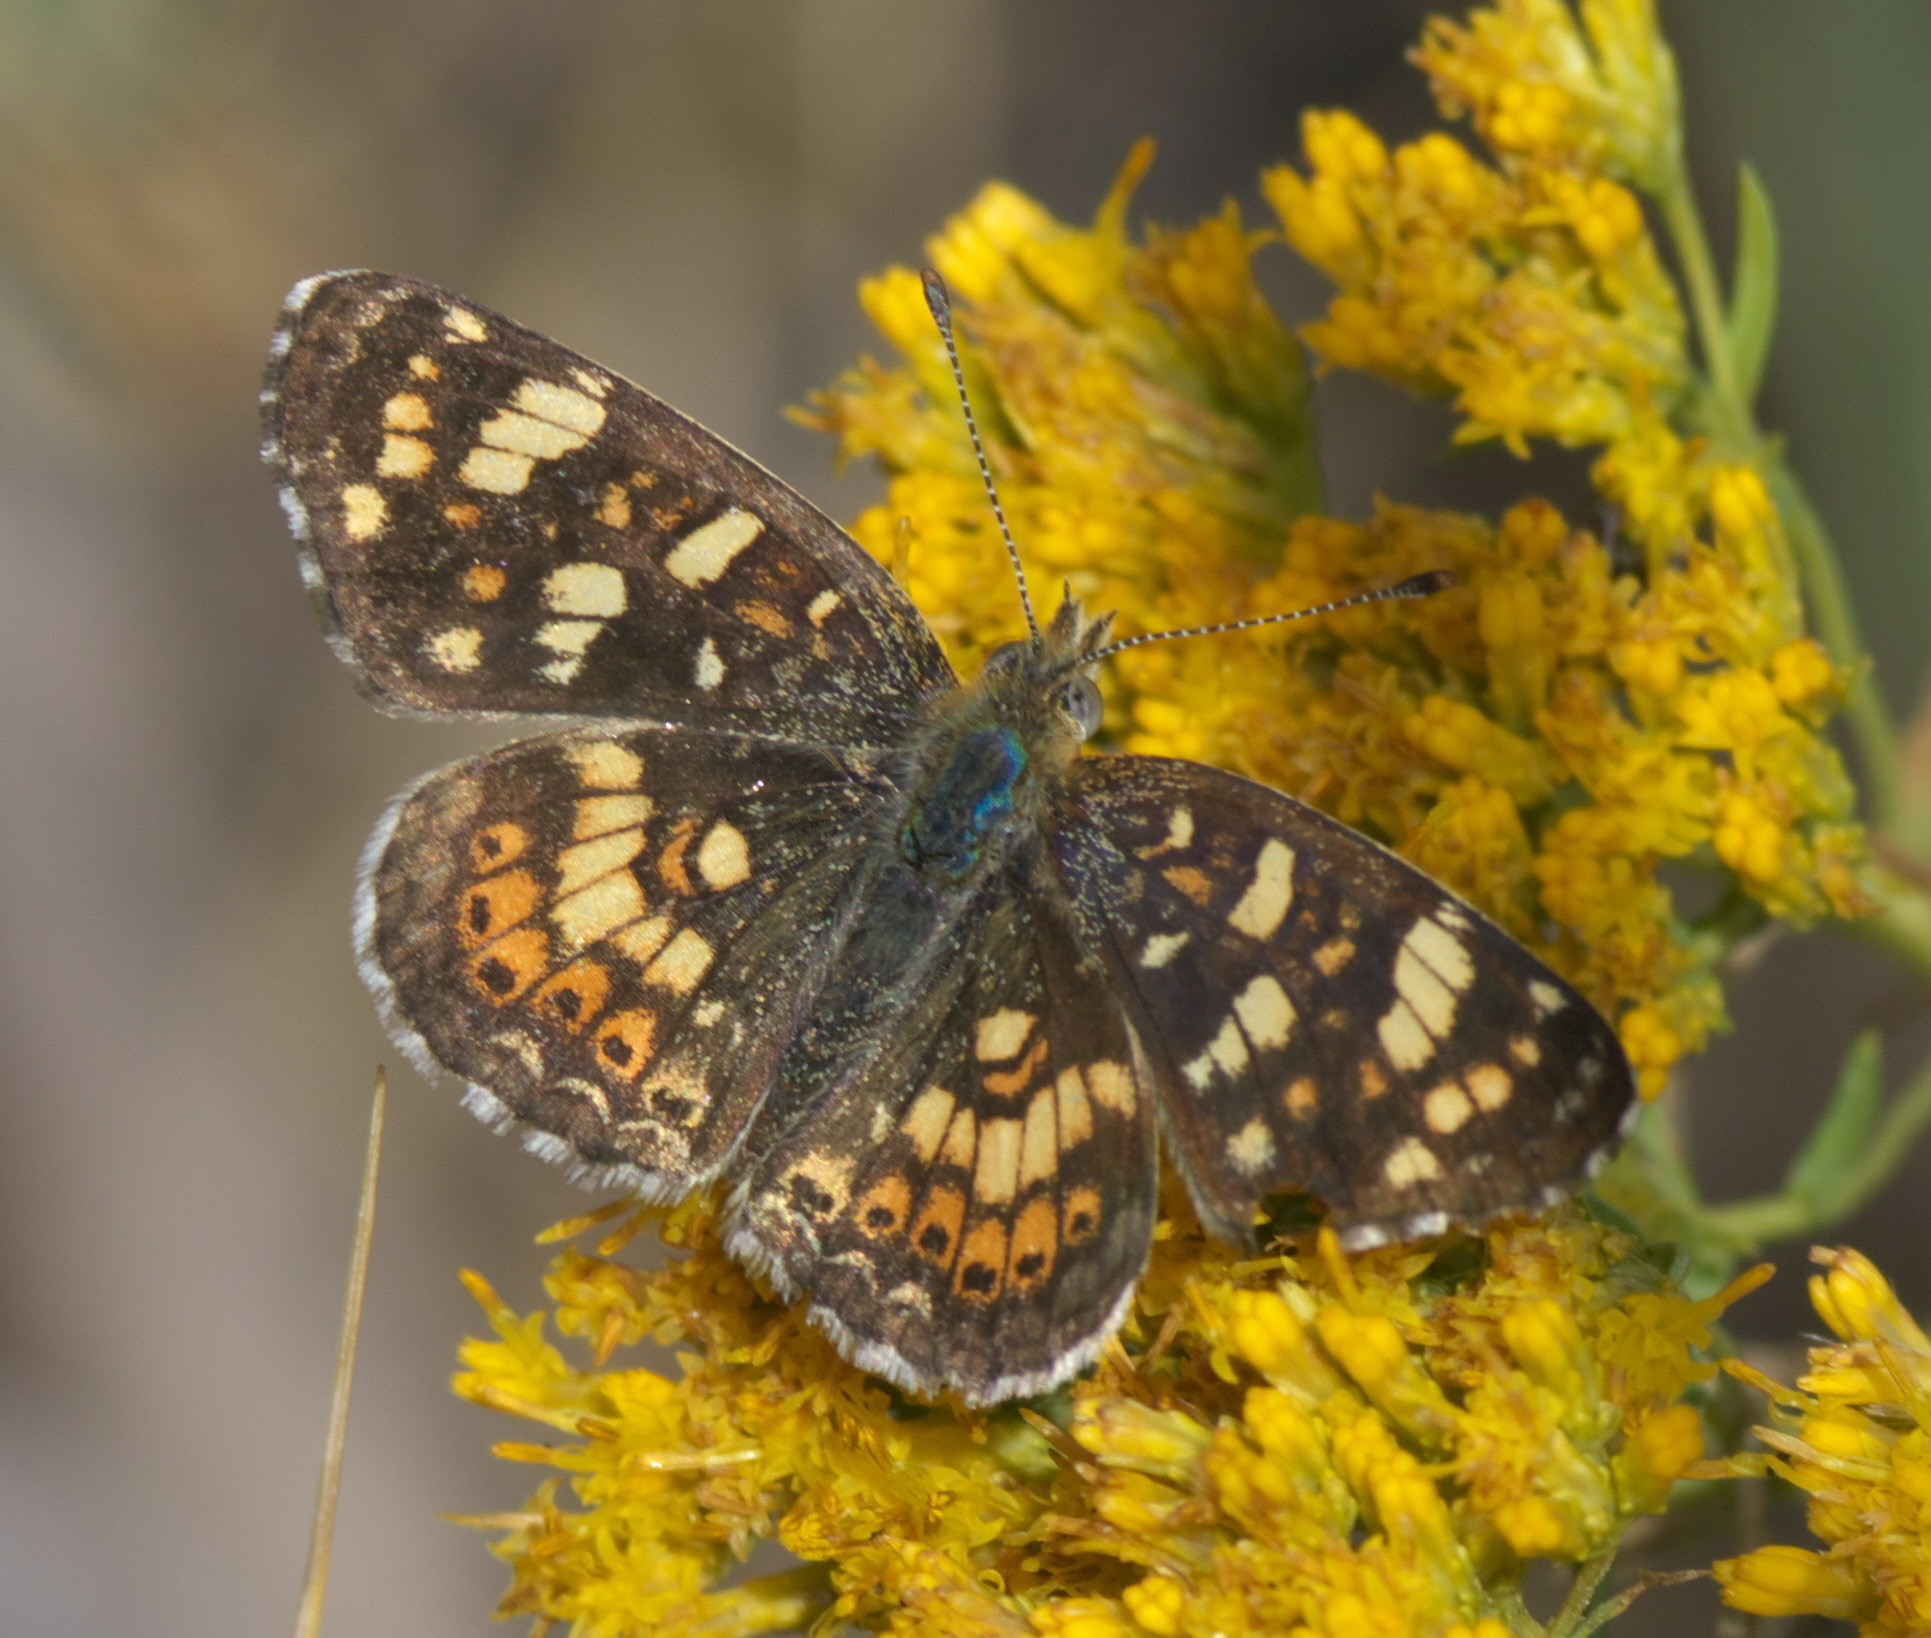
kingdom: Animalia
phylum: Arthropoda
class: Insecta
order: Lepidoptera
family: Nymphalidae
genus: Phyciodes
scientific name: Phyciodes tharos
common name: Pearl crescent
